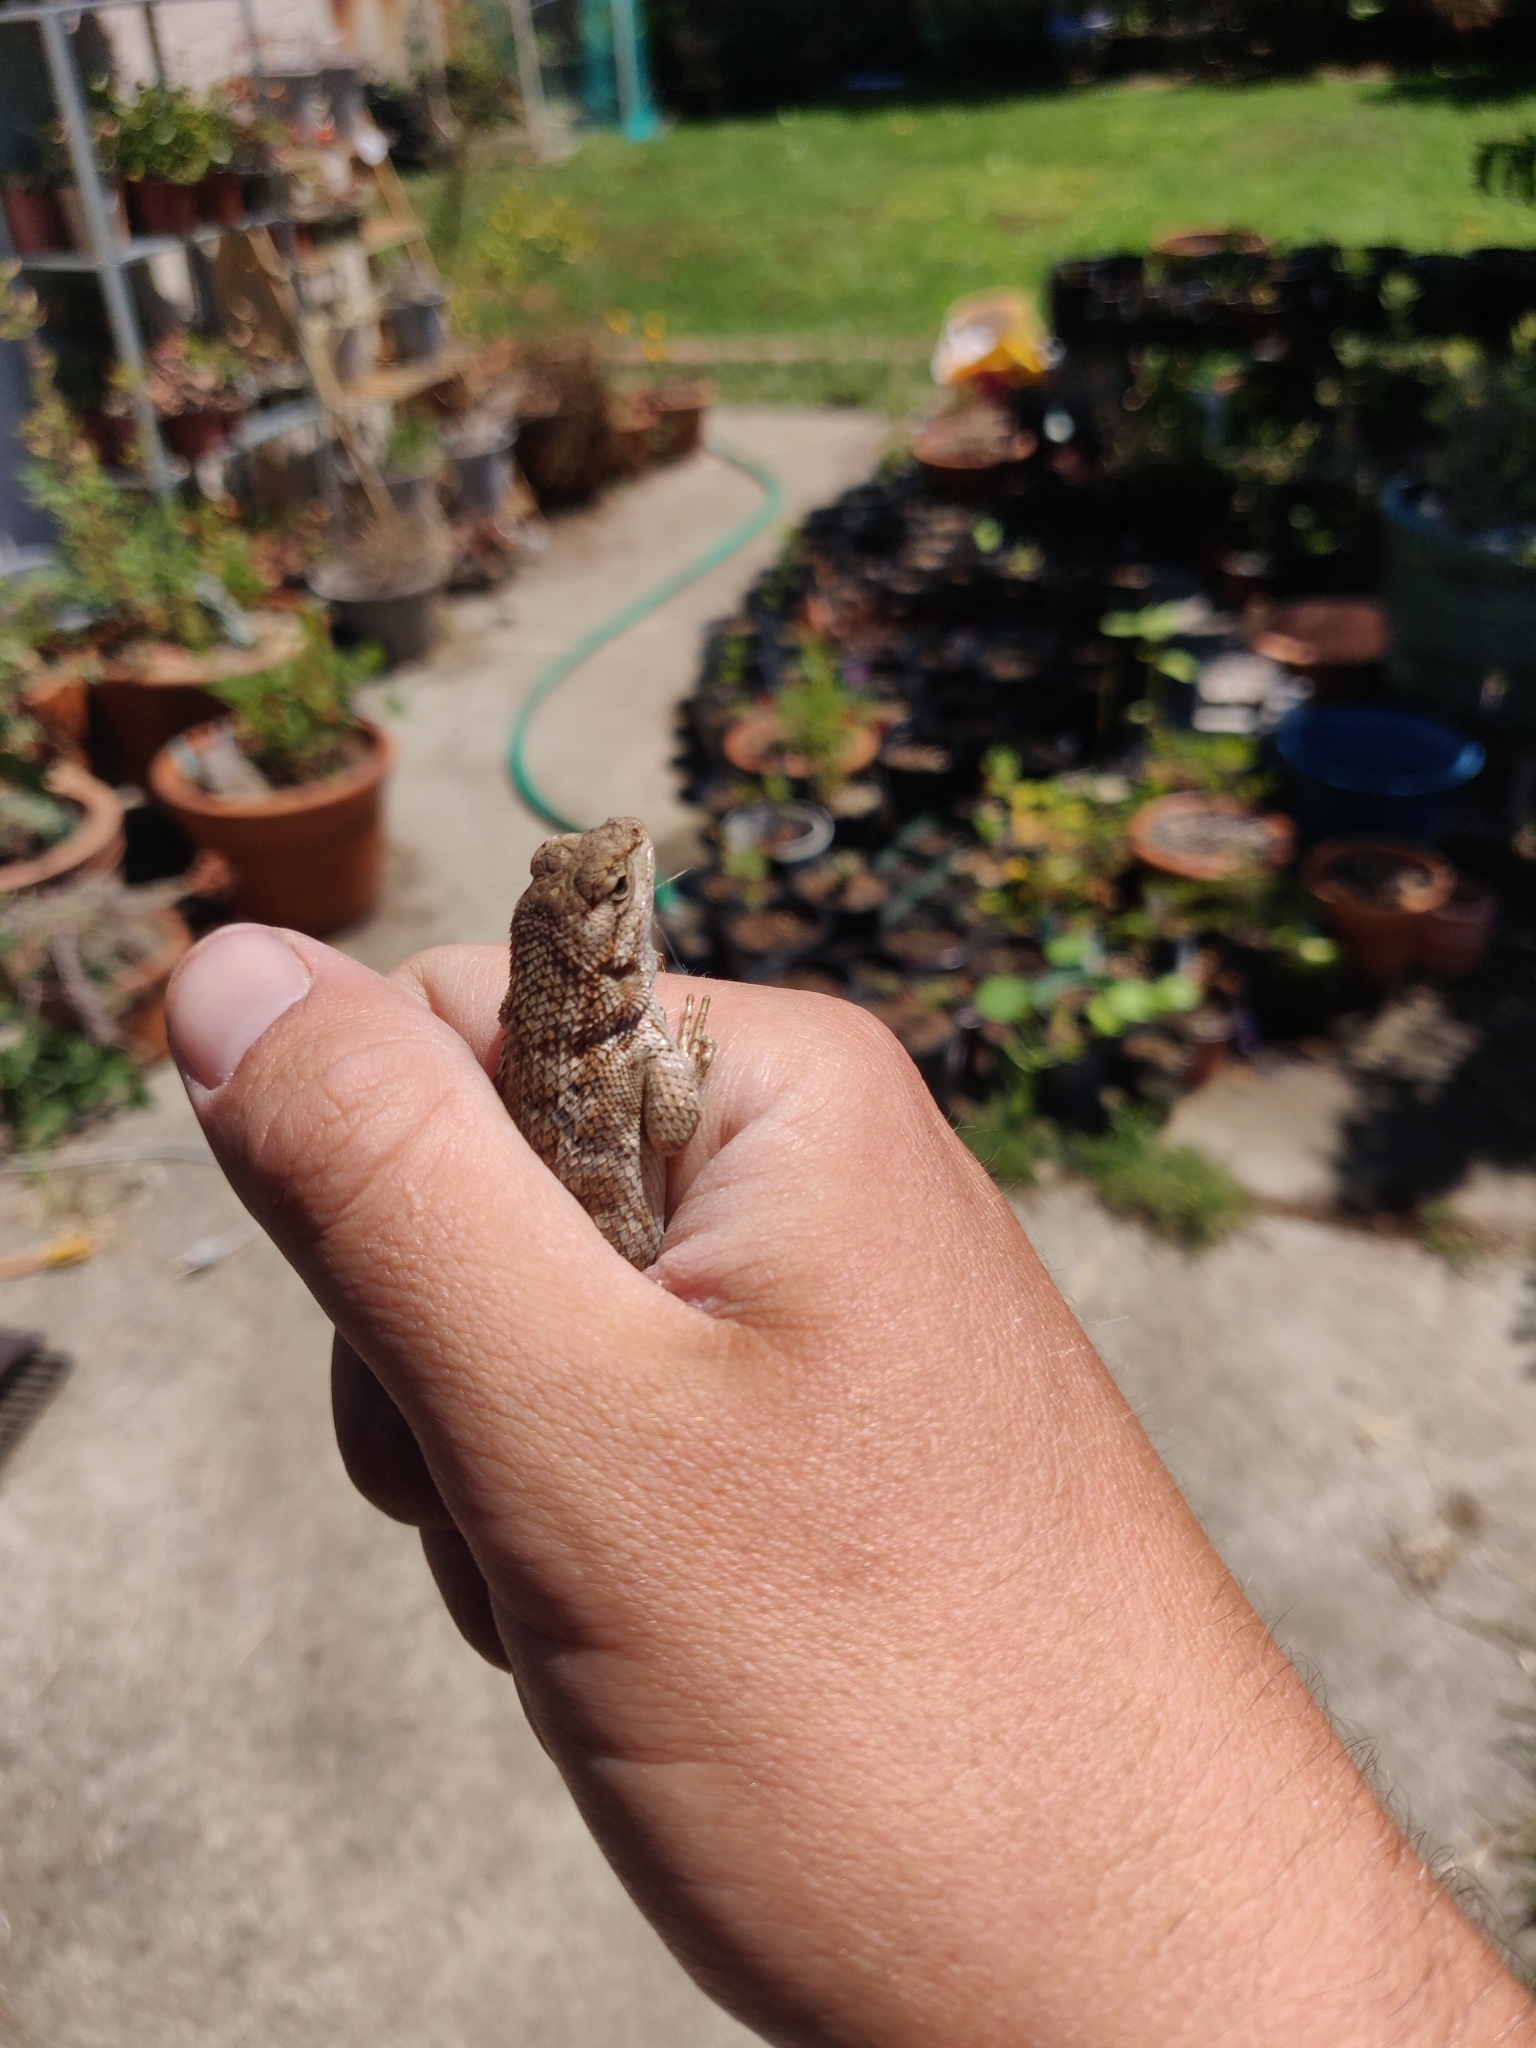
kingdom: Animalia
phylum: Chordata
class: Squamata
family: Phrynosomatidae
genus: Sceloporus
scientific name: Sceloporus occidentalis
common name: Western fence lizard
